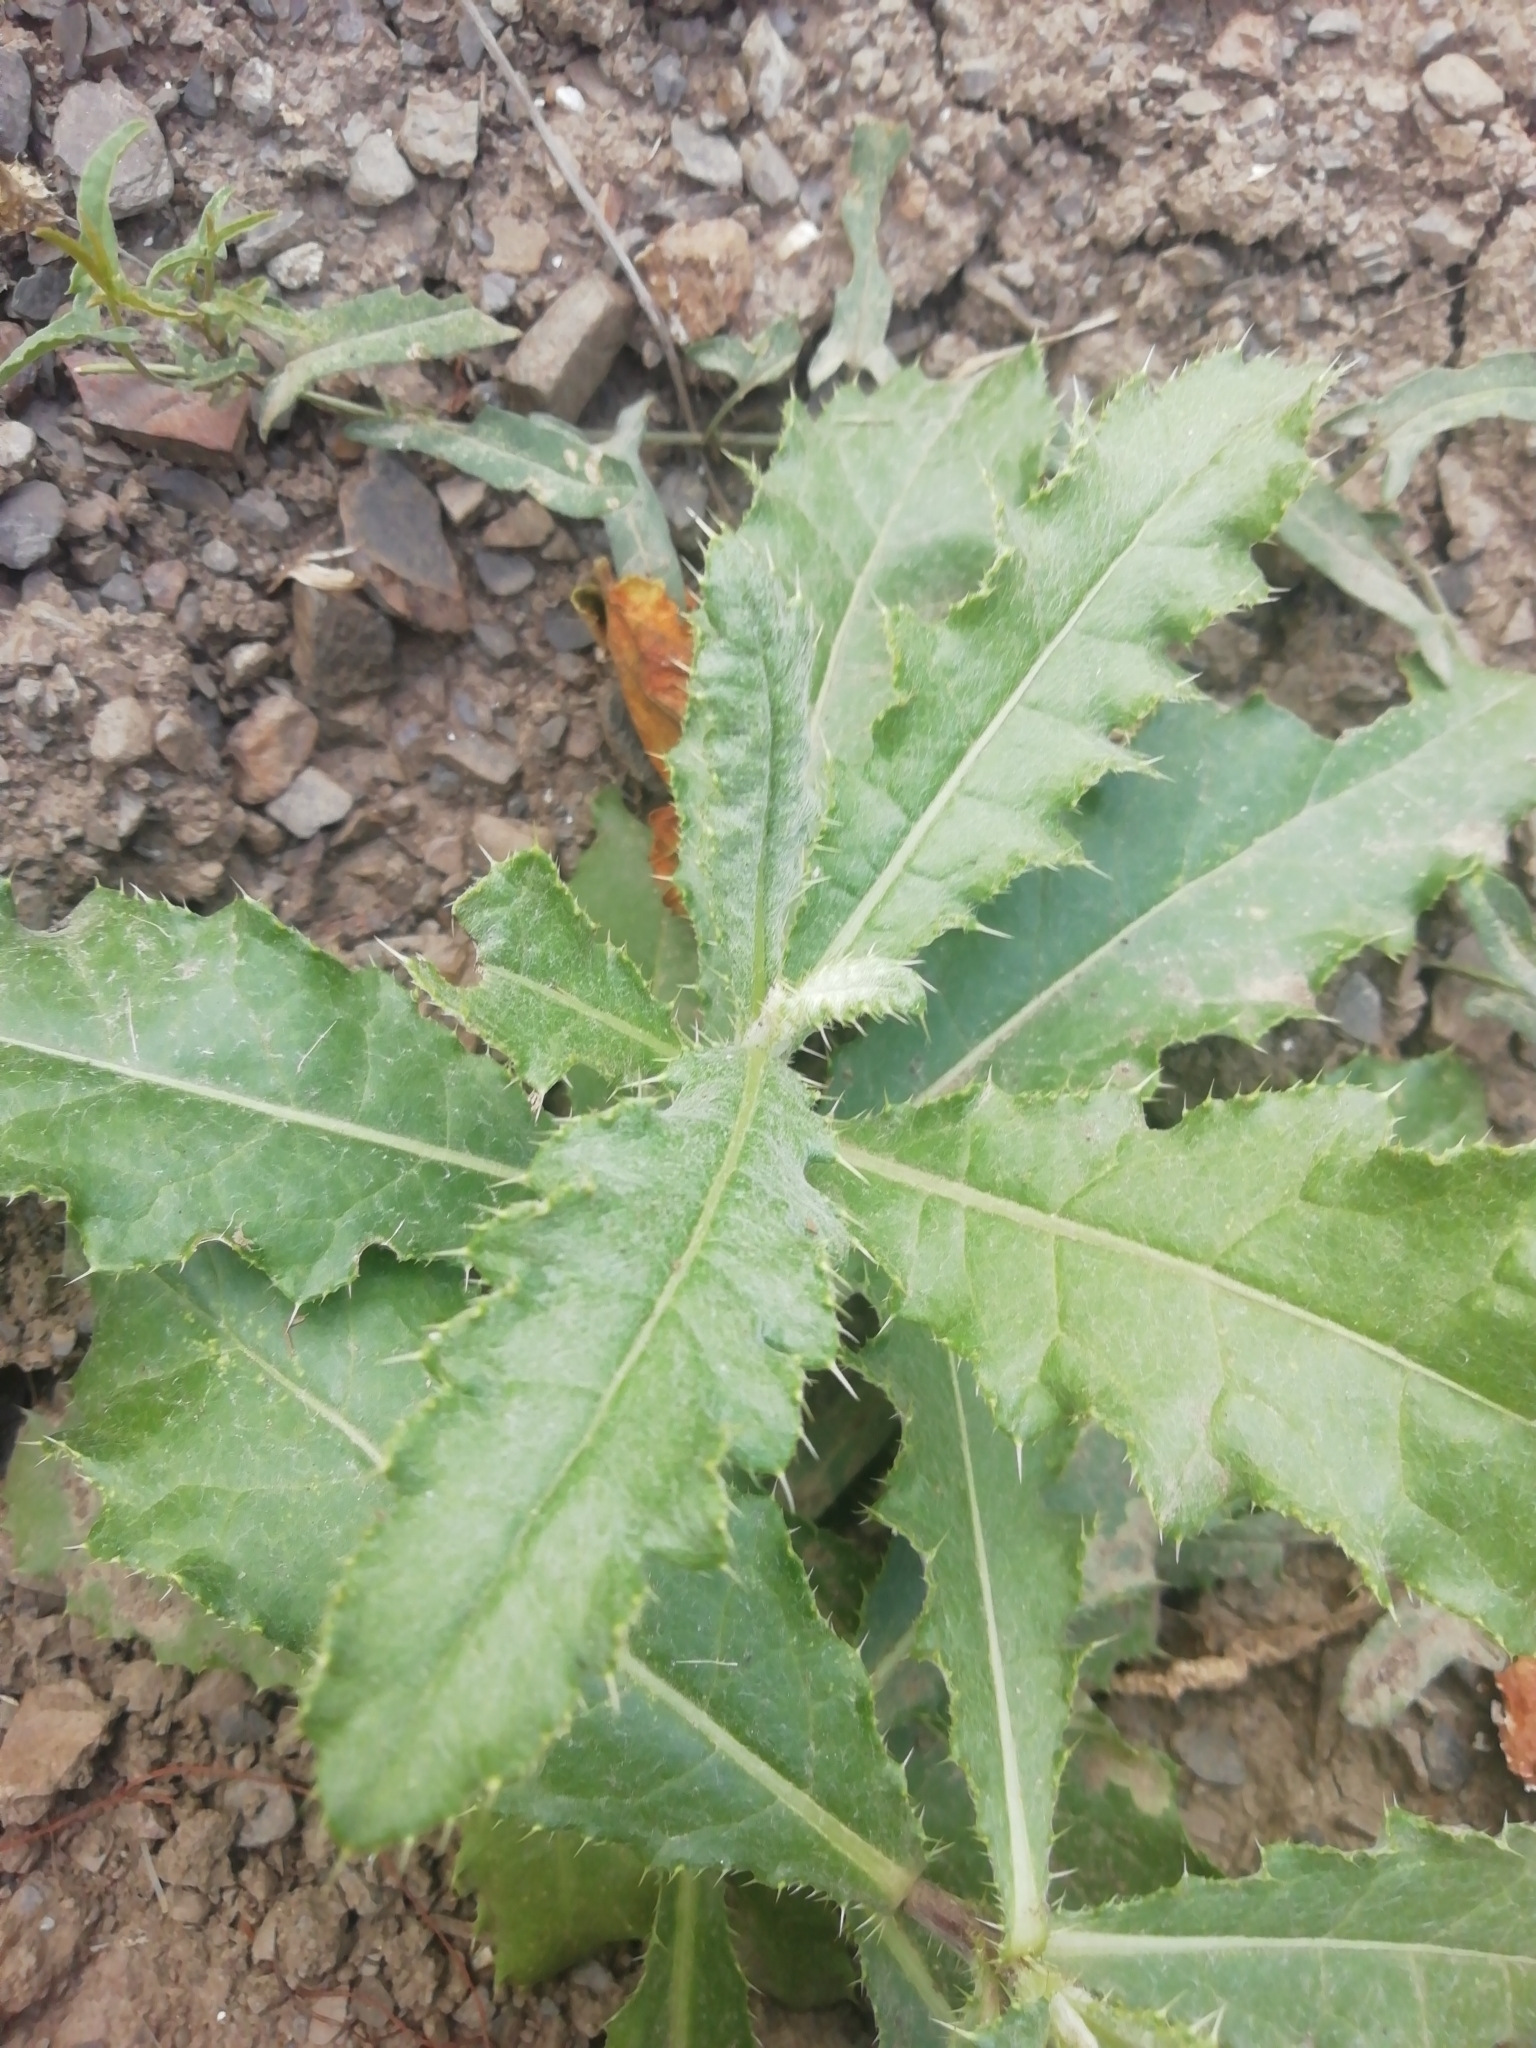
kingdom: Plantae
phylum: Tracheophyta
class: Magnoliopsida
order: Asterales
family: Asteraceae
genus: Cirsium
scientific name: Cirsium arvense
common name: Creeping thistle
